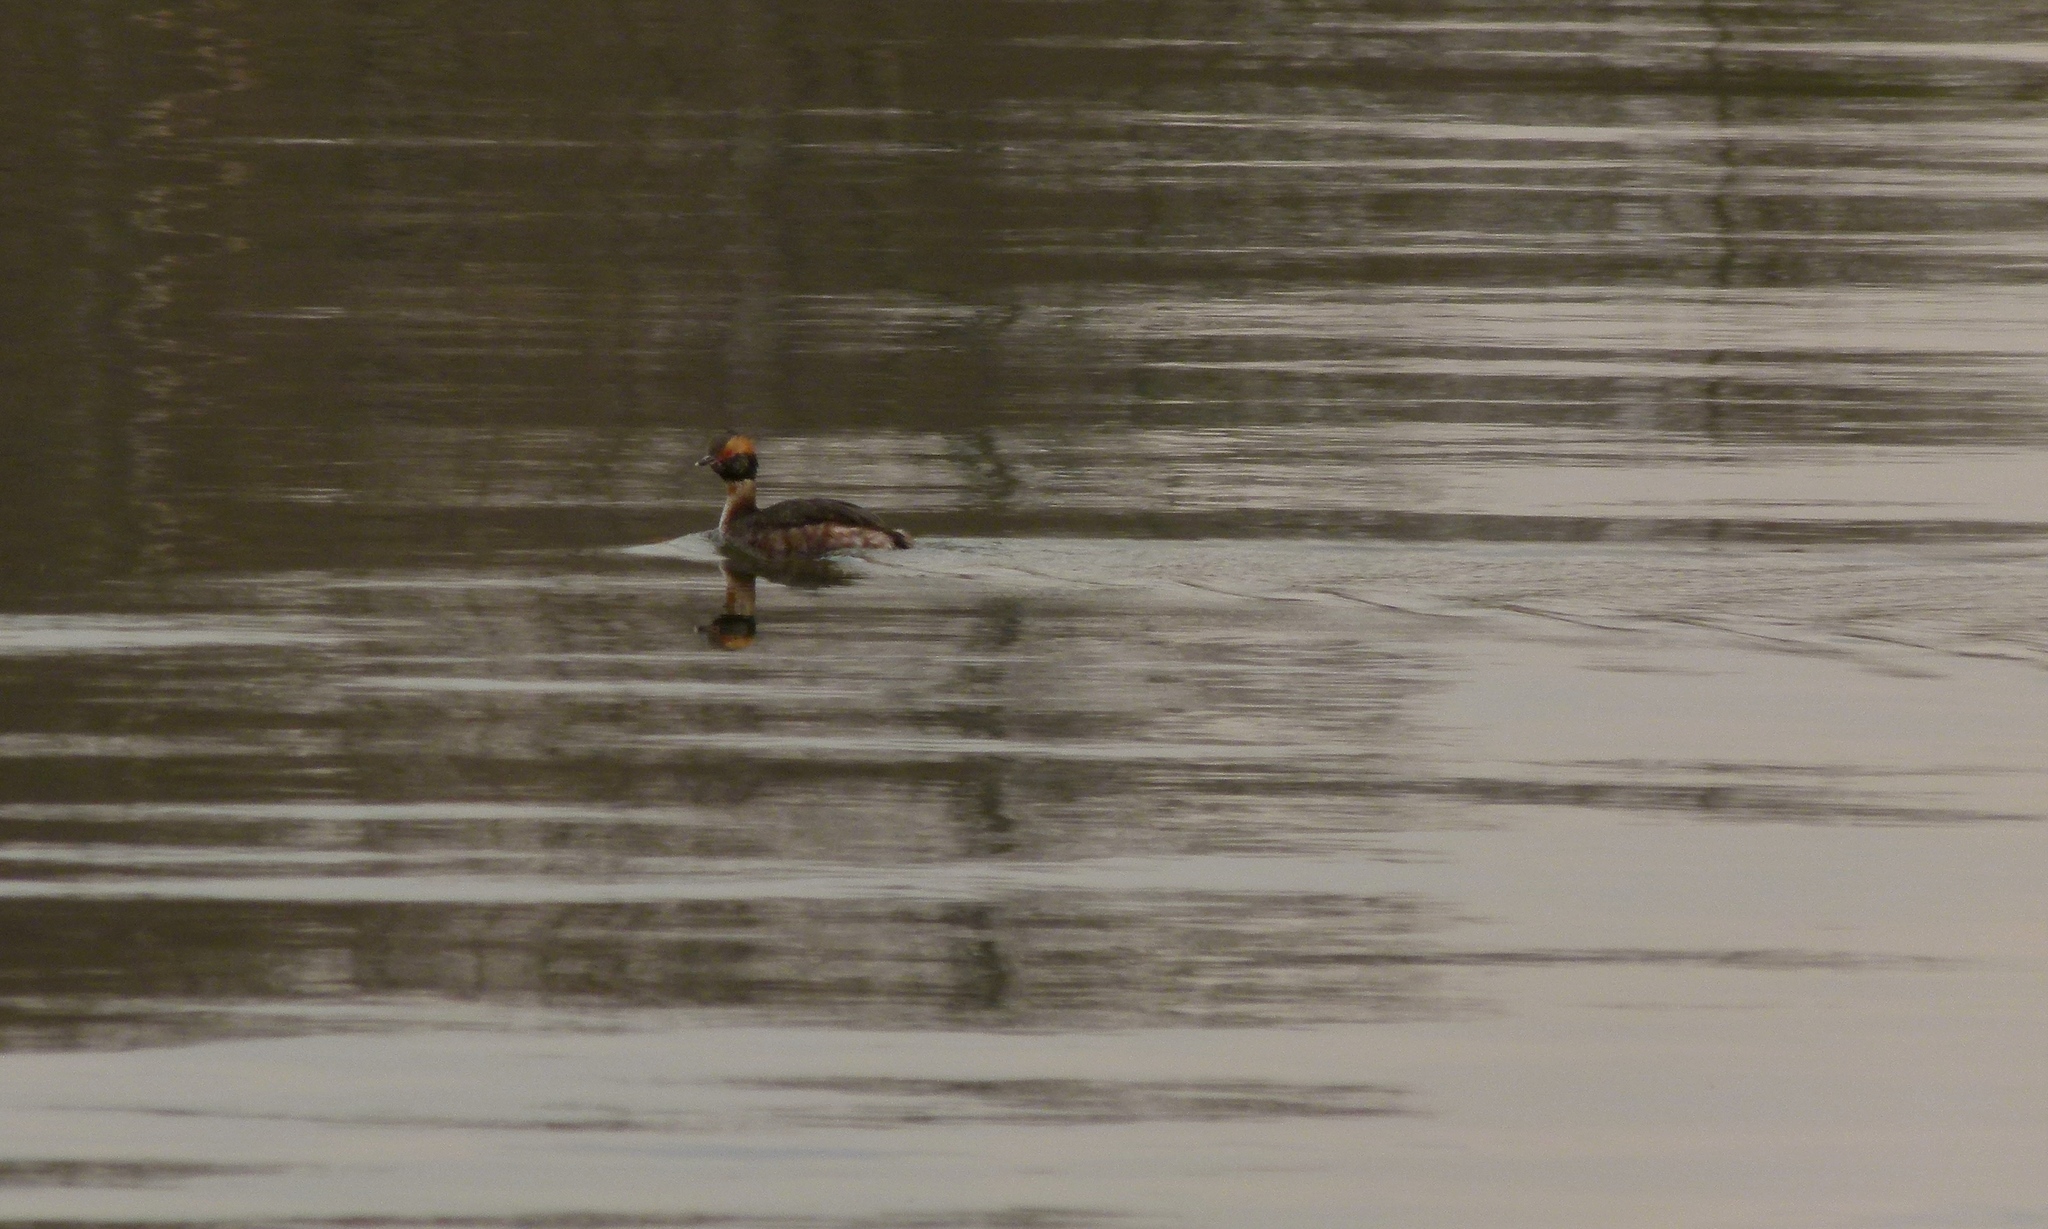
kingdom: Animalia
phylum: Chordata
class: Aves
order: Podicipediformes
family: Podicipedidae
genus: Podiceps
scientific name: Podiceps auritus
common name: Horned grebe
